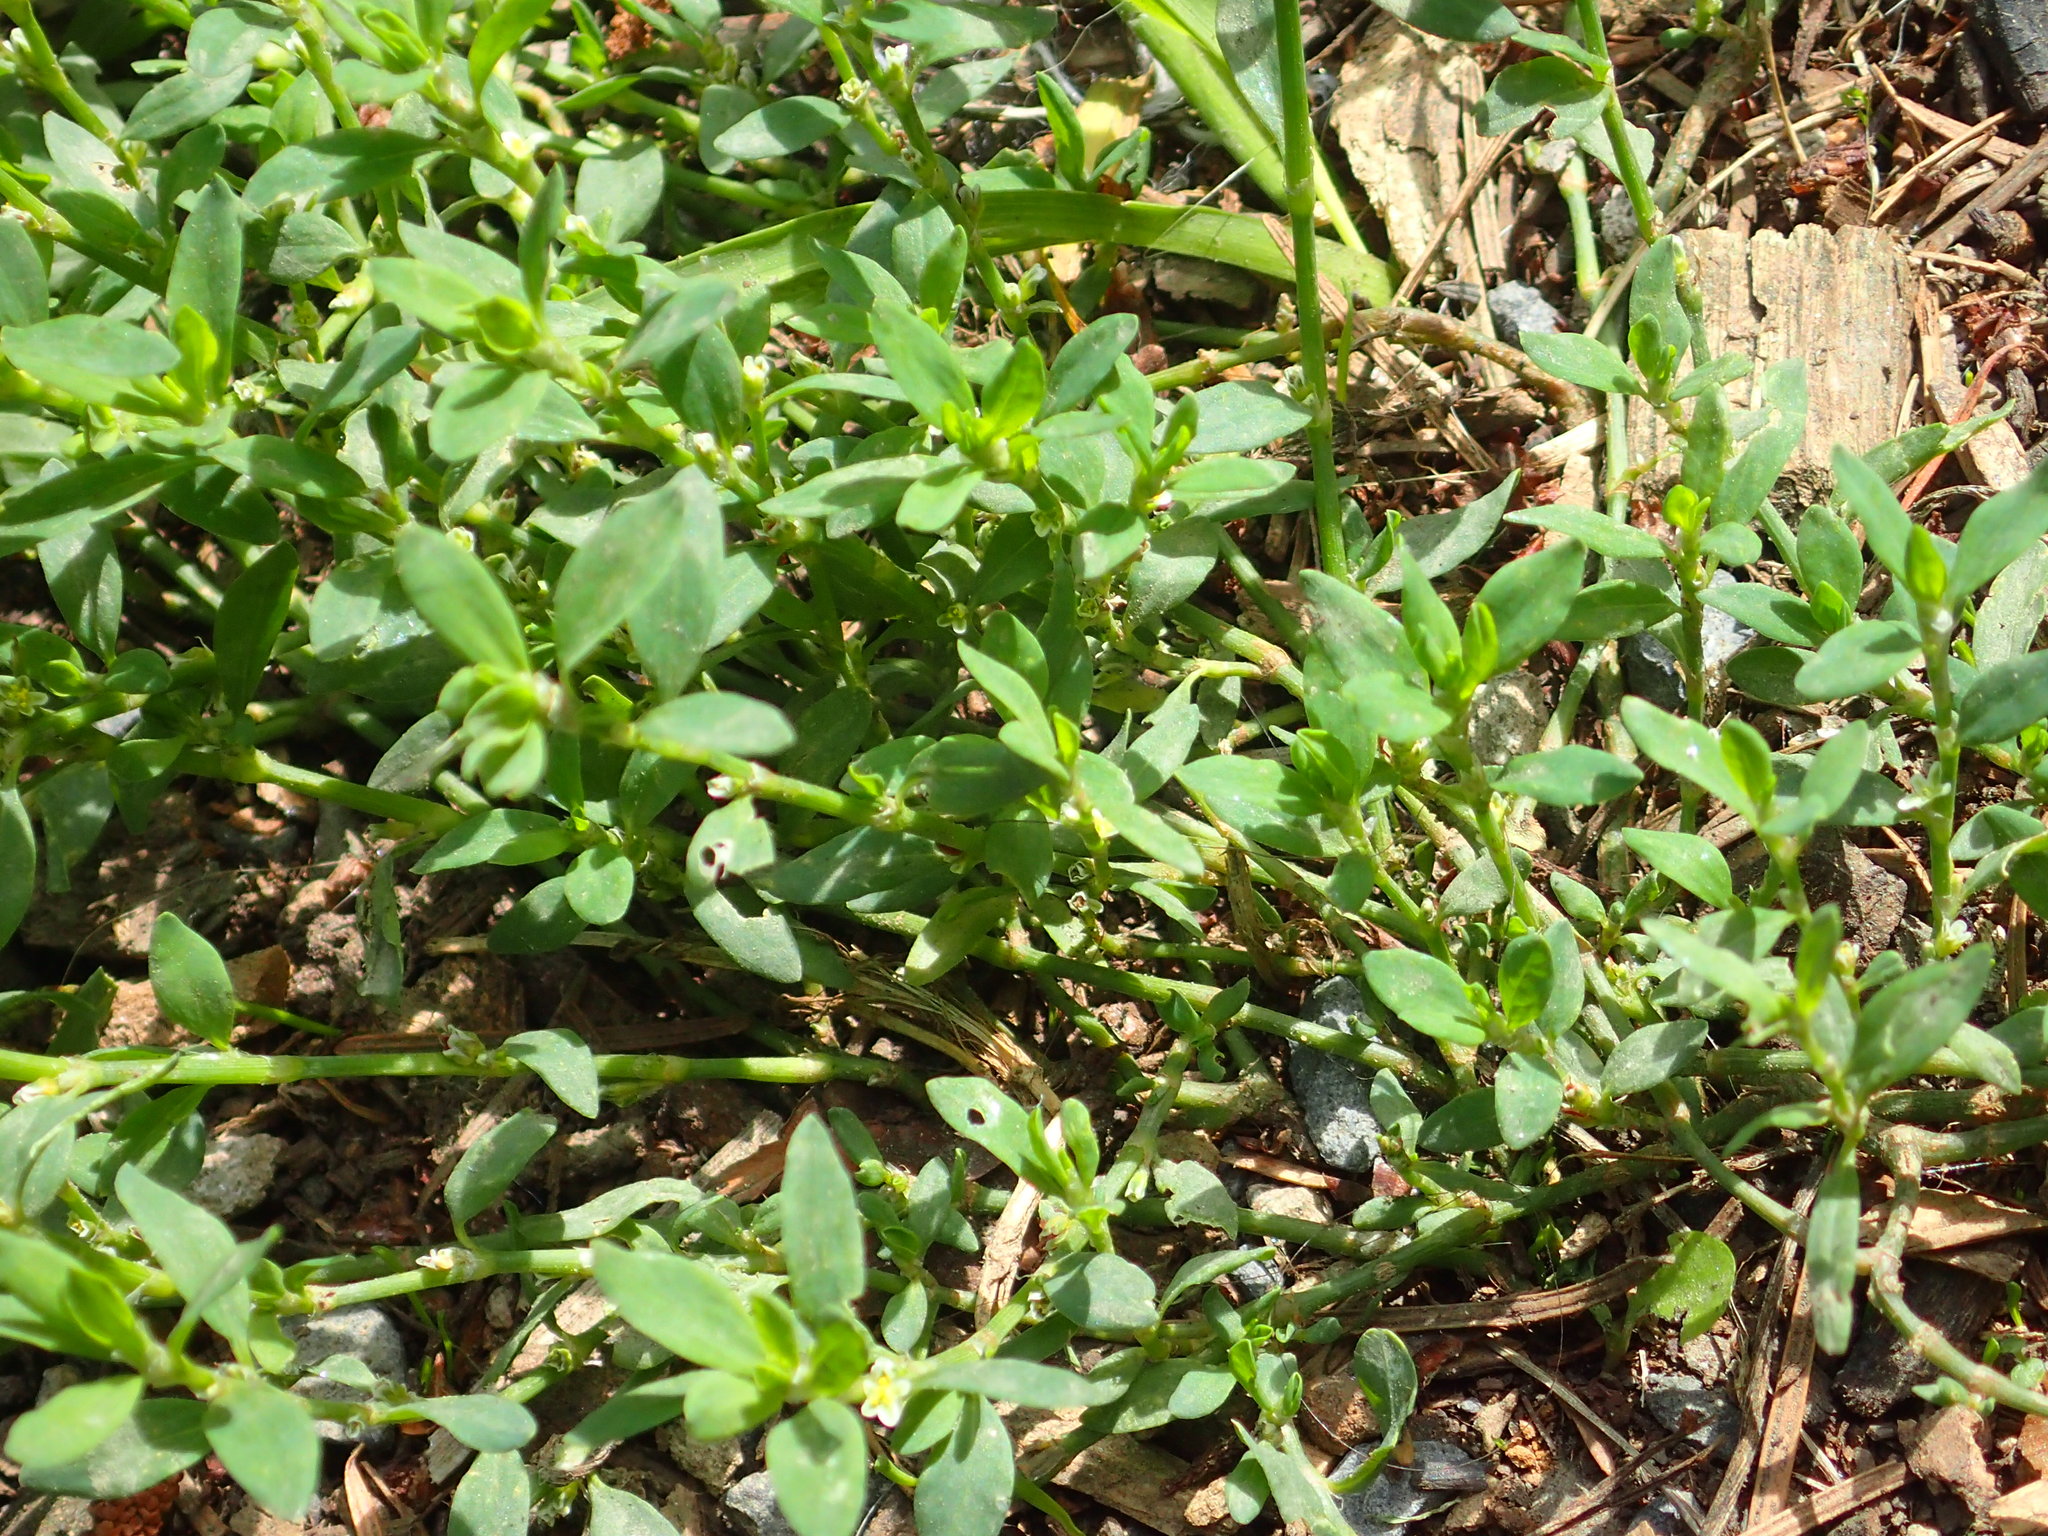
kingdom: Plantae
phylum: Tracheophyta
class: Magnoliopsida
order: Caryophyllales
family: Polygonaceae
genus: Polygonum
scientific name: Polygonum aviculare
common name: Prostrate knotweed
